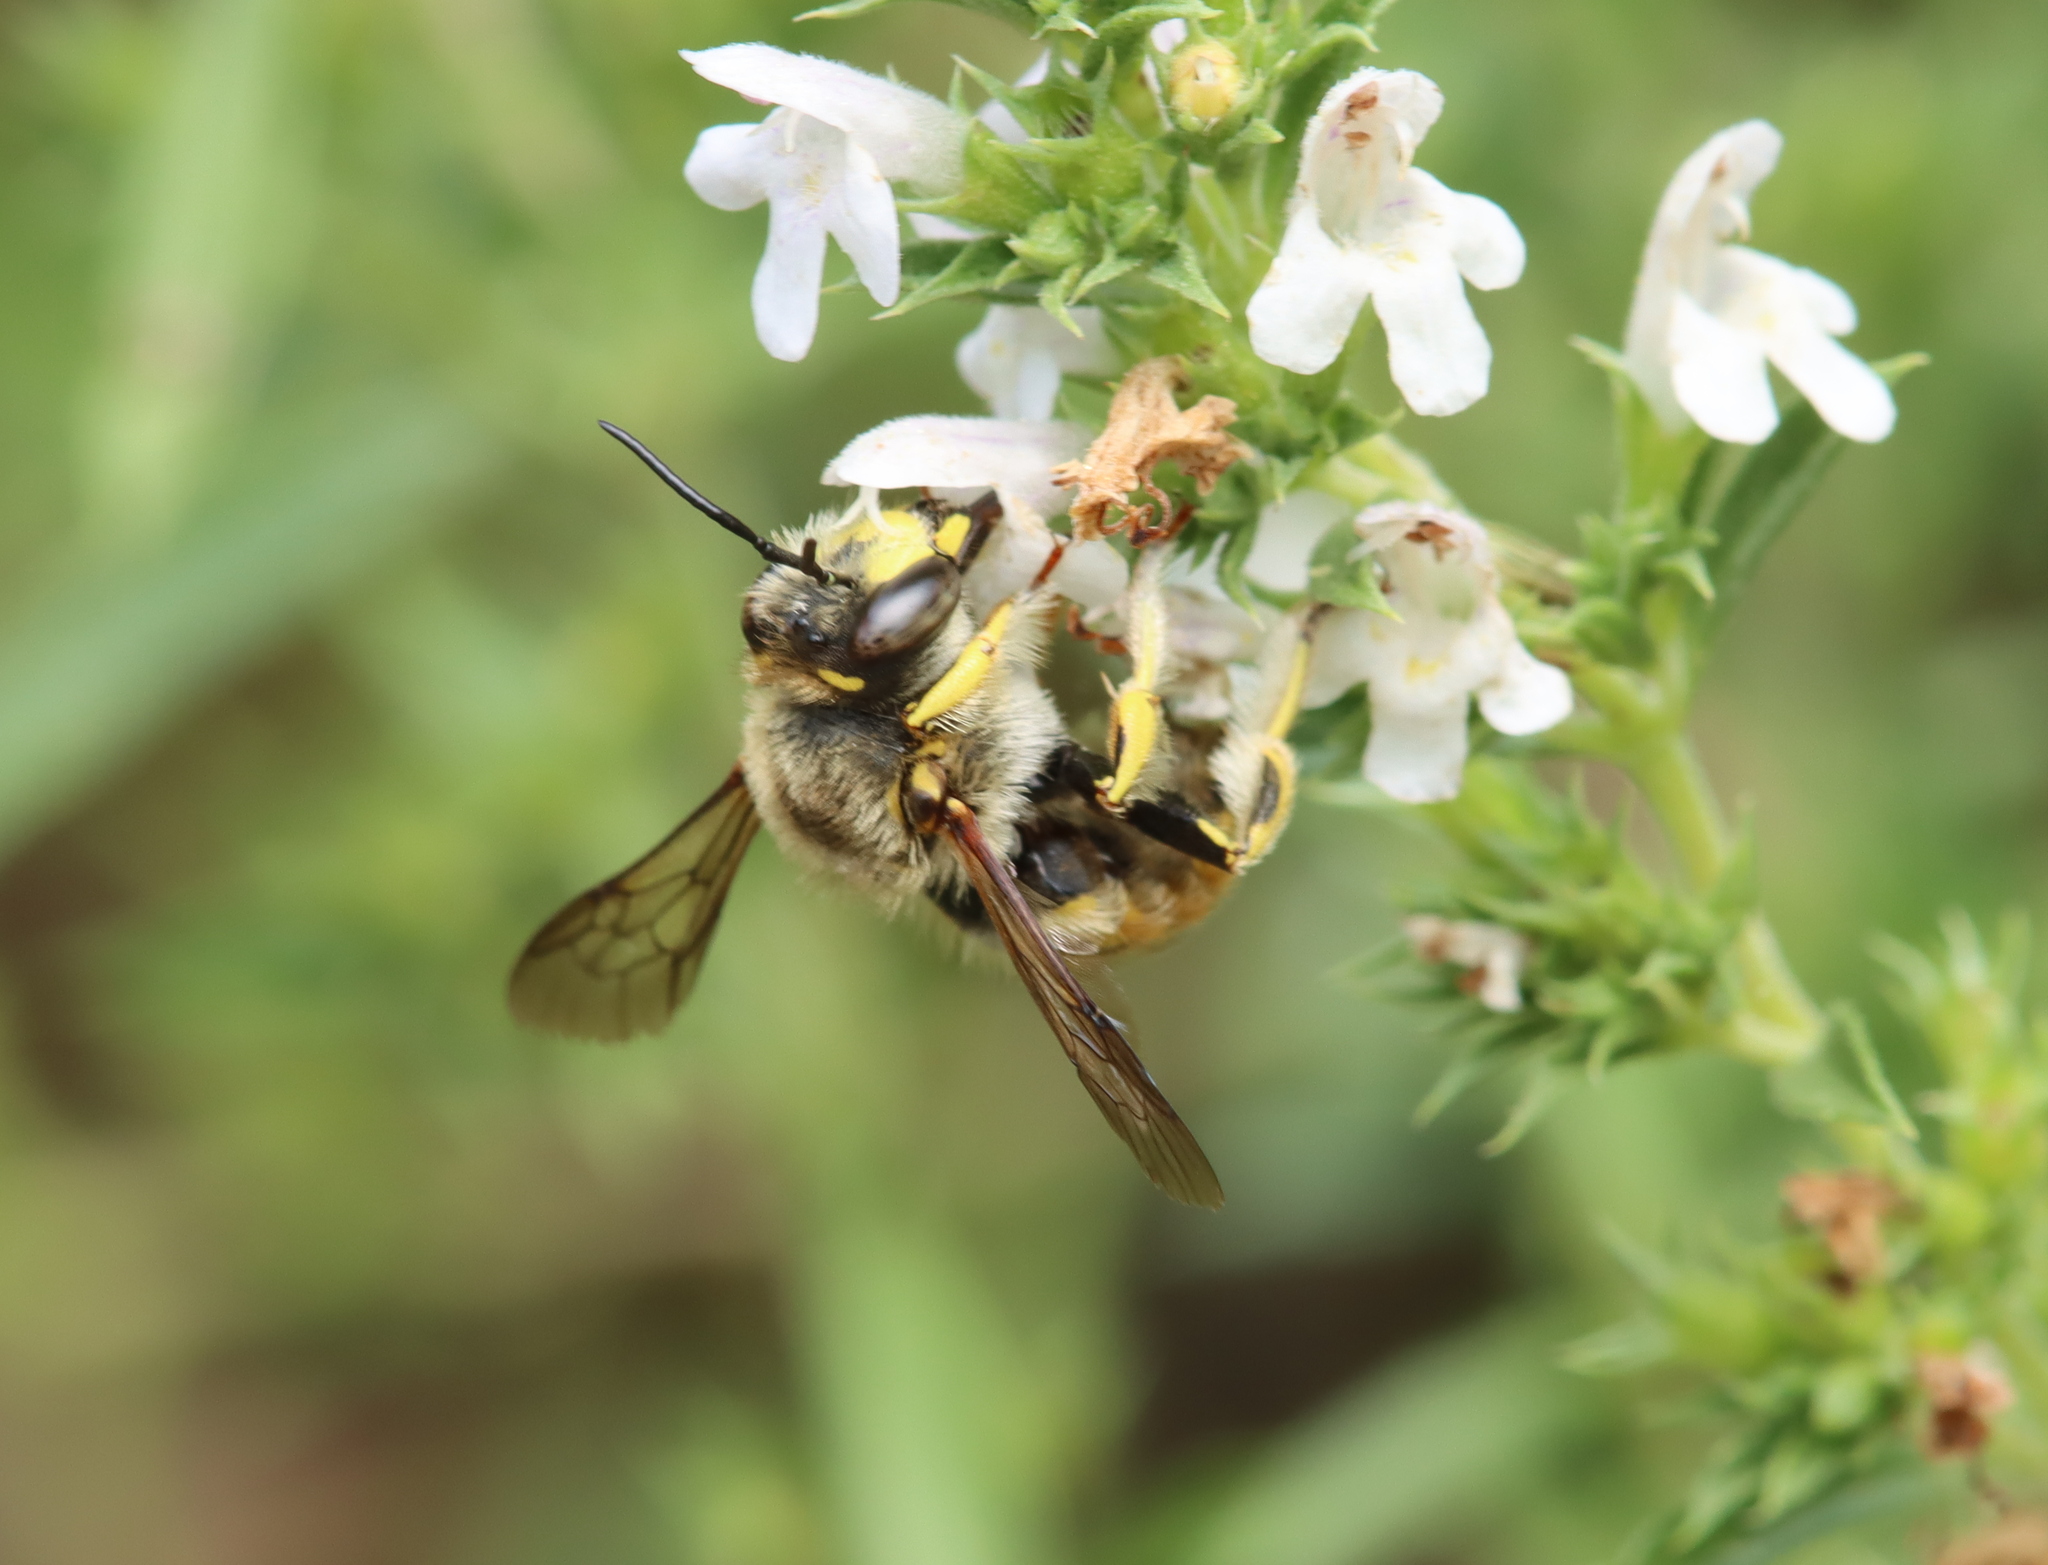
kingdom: Animalia
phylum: Arthropoda
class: Insecta
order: Hymenoptera
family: Megachilidae
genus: Anthidium
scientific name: Anthidium manicatum
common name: Wool carder bee
